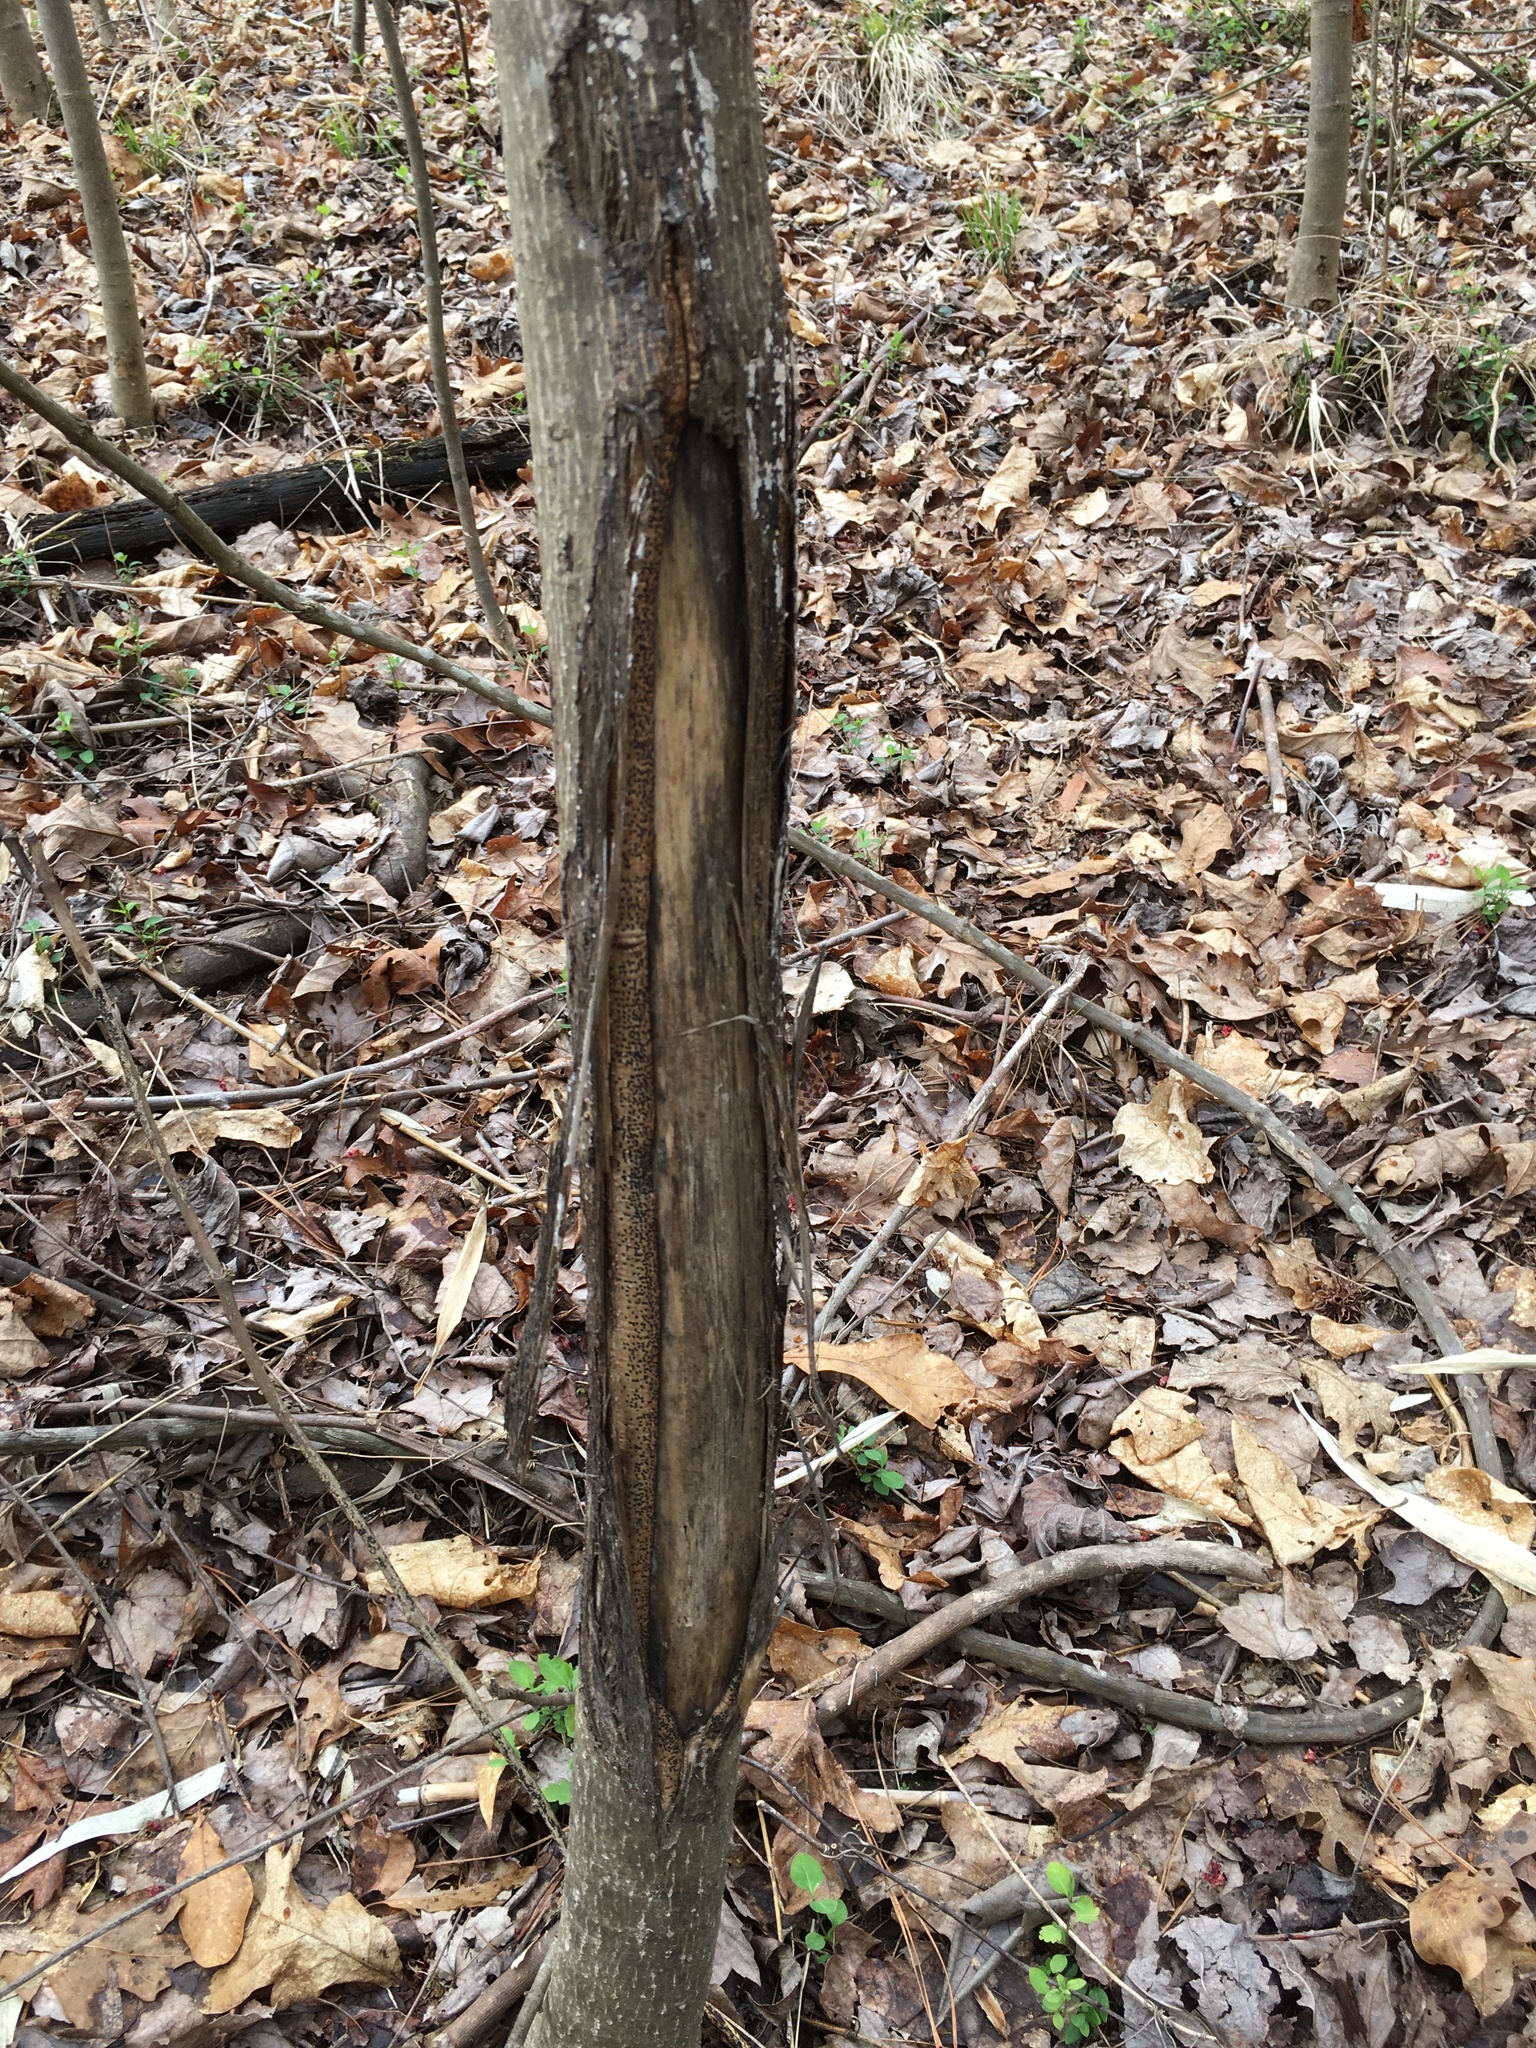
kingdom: Animalia
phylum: Chordata
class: Mammalia
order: Artiodactyla
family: Cervidae
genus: Odocoileus
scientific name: Odocoileus virginianus
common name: White-tailed deer
